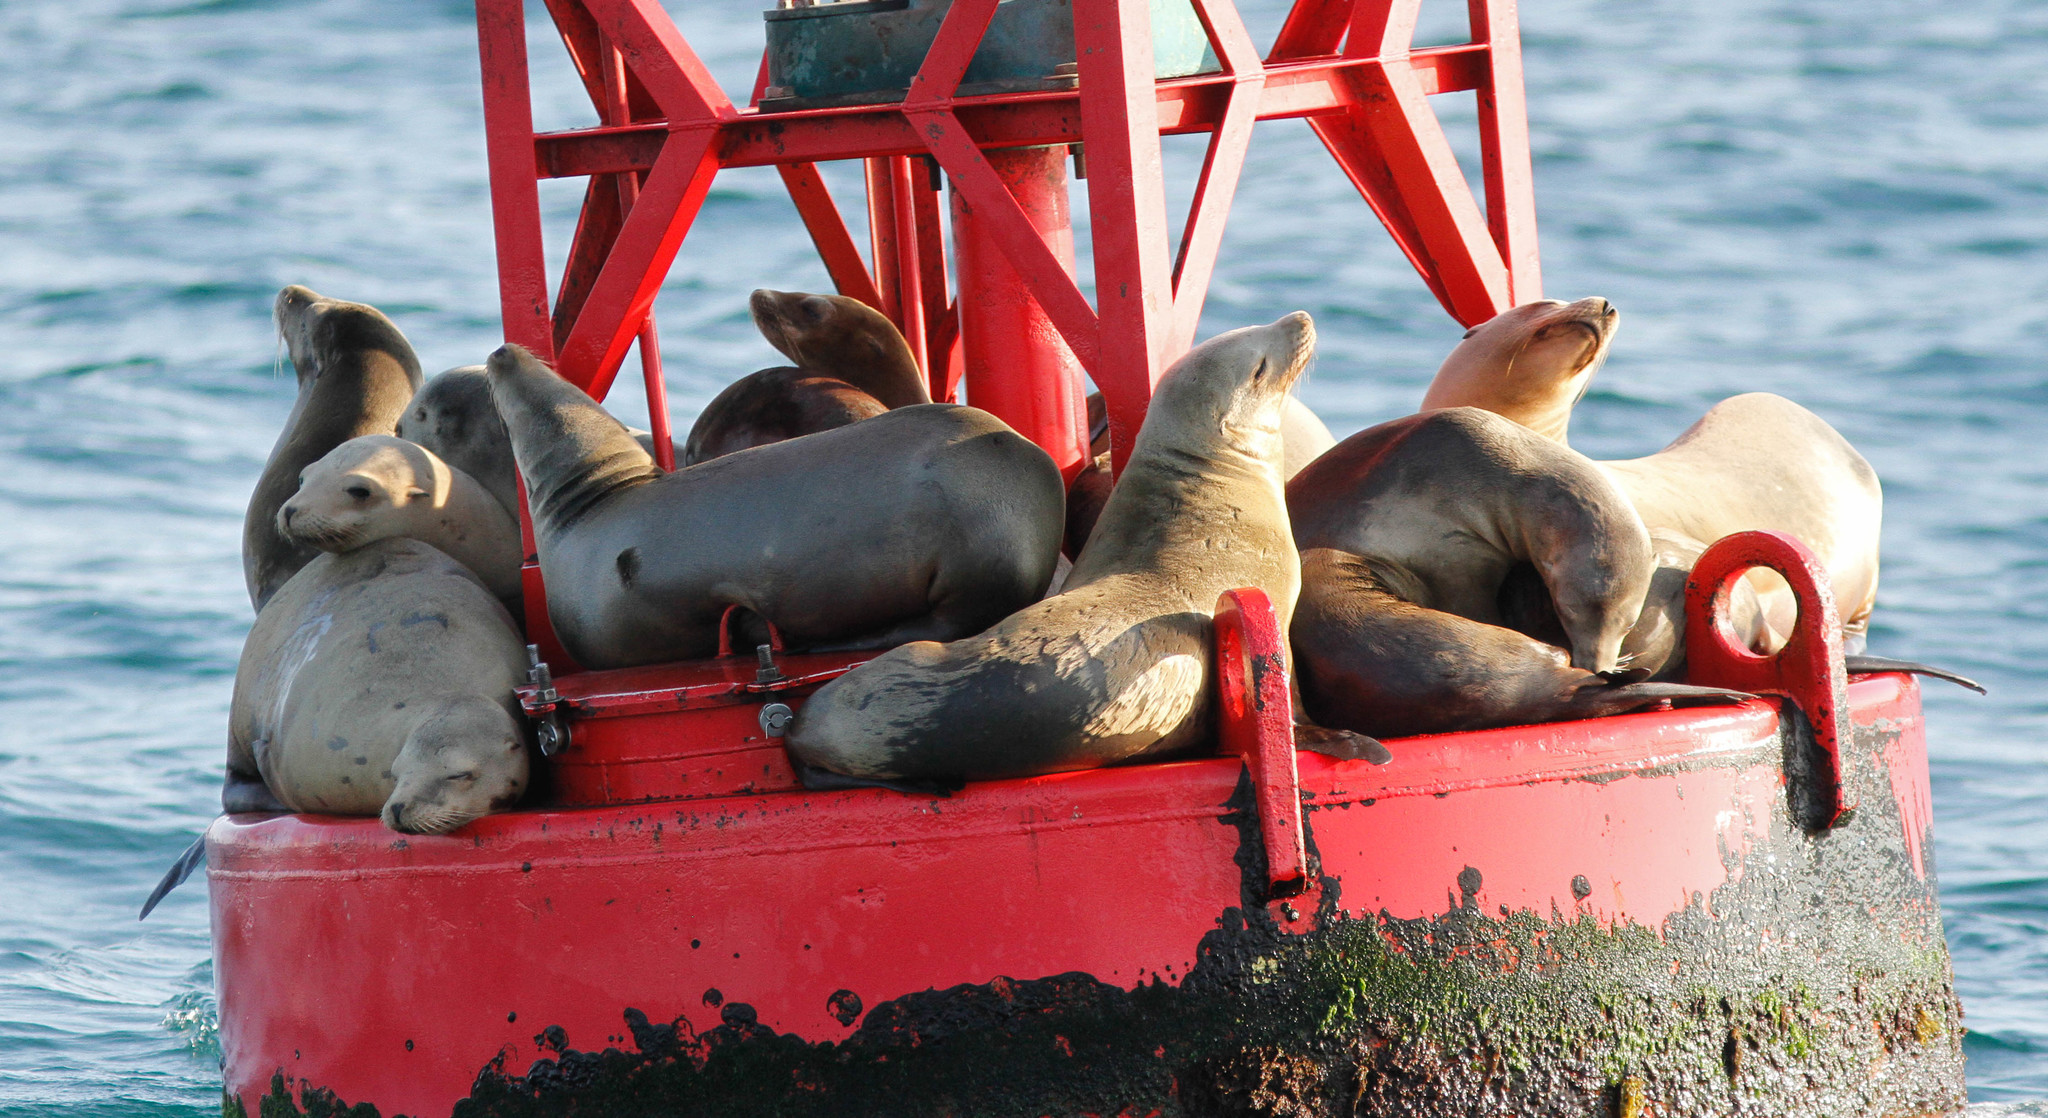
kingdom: Animalia
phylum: Chordata
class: Mammalia
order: Carnivora
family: Otariidae
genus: Zalophus
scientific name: Zalophus californianus
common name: California sea lion
